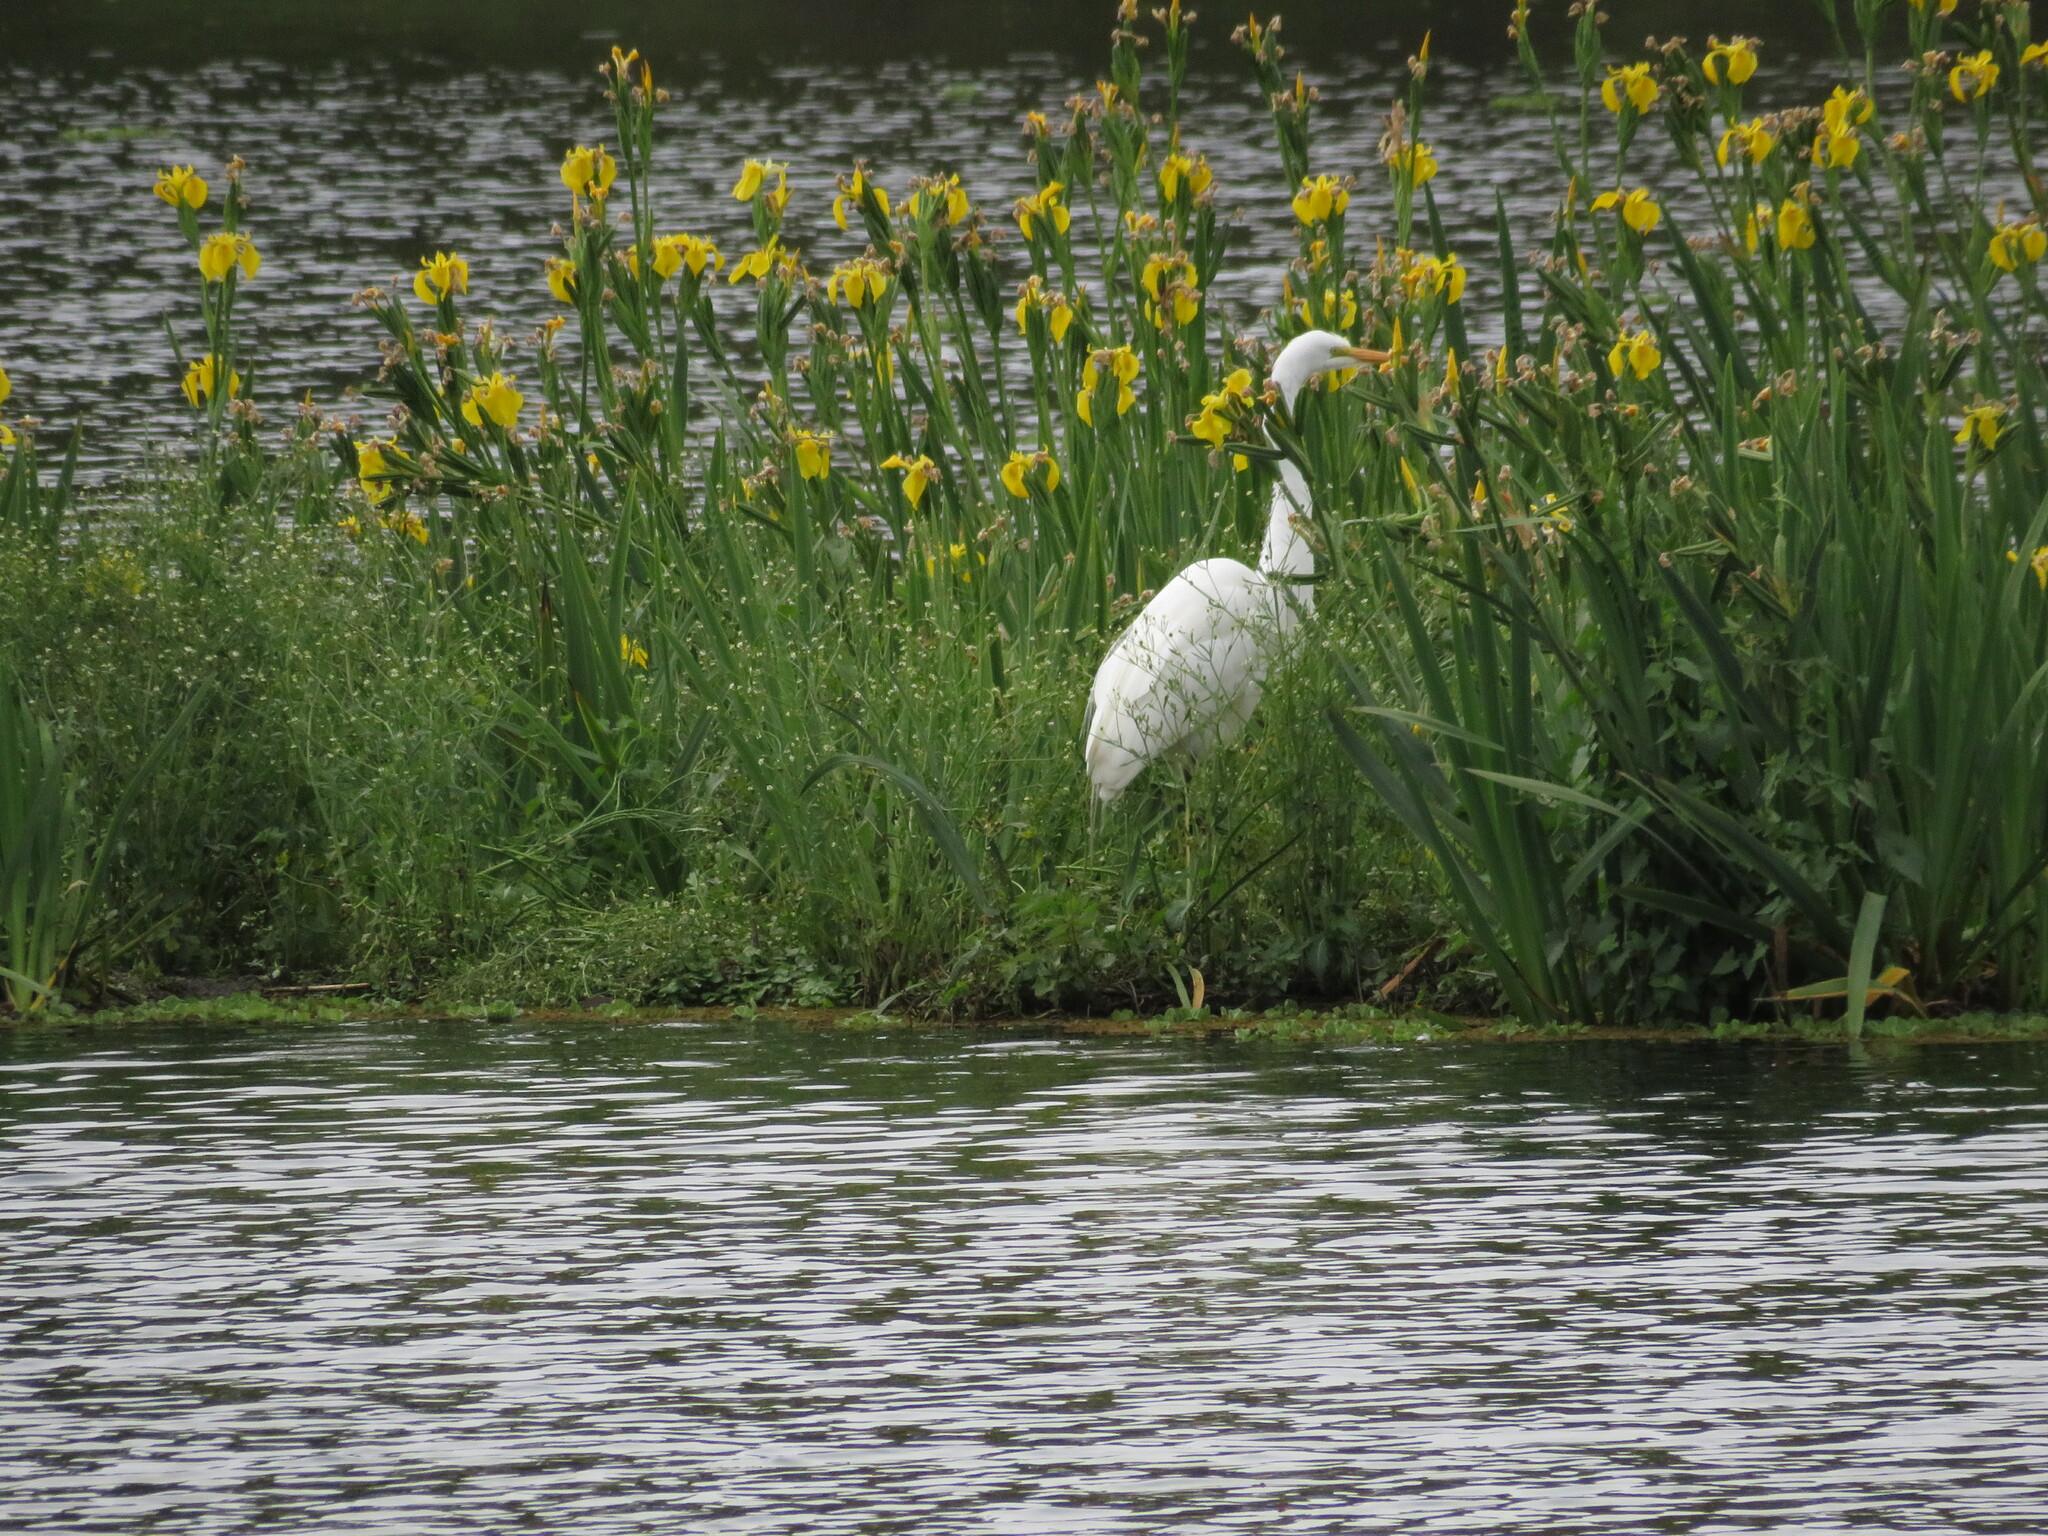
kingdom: Animalia
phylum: Chordata
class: Aves
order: Pelecaniformes
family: Ardeidae
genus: Ardea
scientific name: Ardea alba
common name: Great egret
